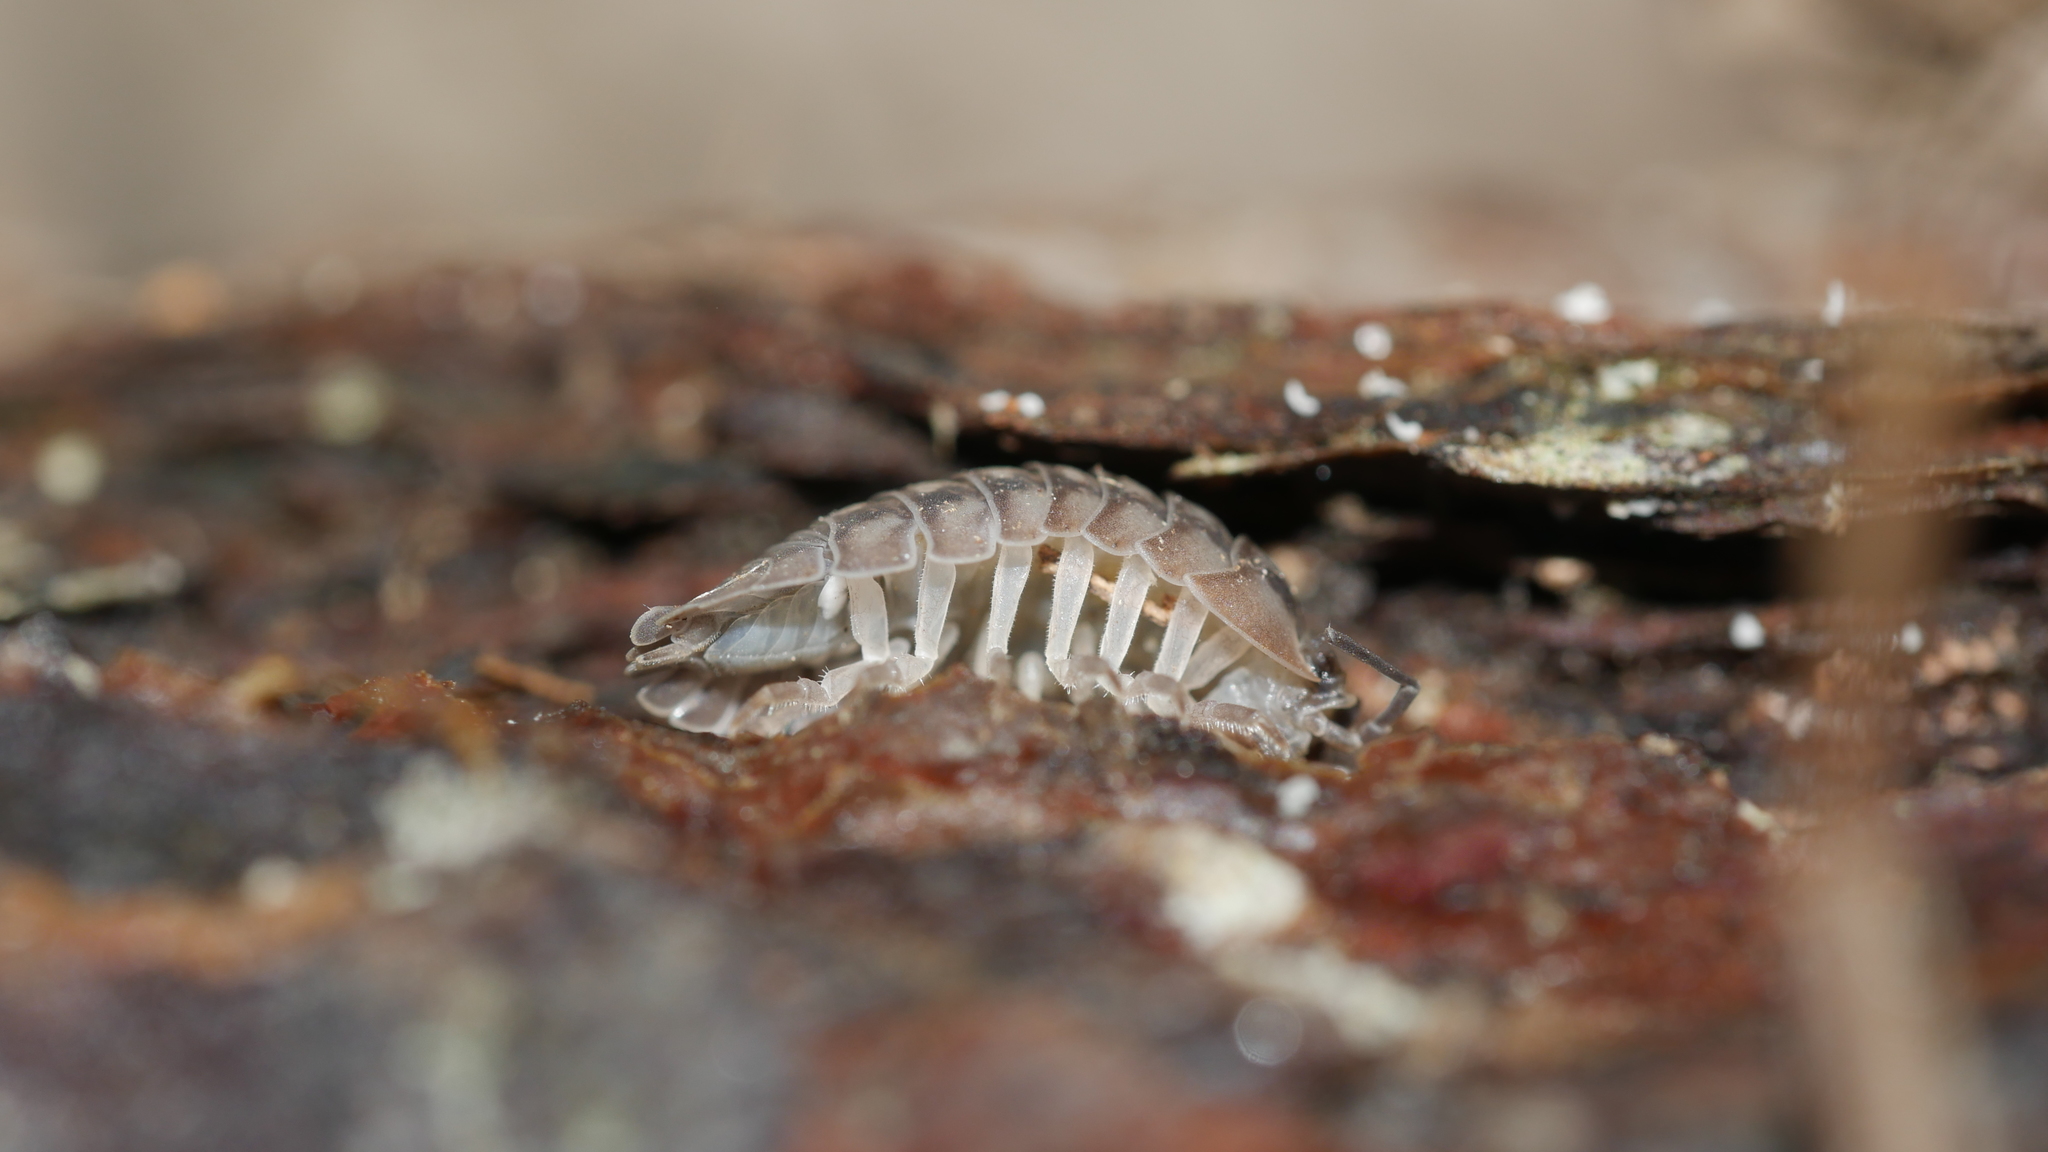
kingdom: Animalia
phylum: Arthropoda
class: Malacostraca
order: Isopoda
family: Armadillidiidae
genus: Armadillidium
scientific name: Armadillidium nasatum
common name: Isopod
